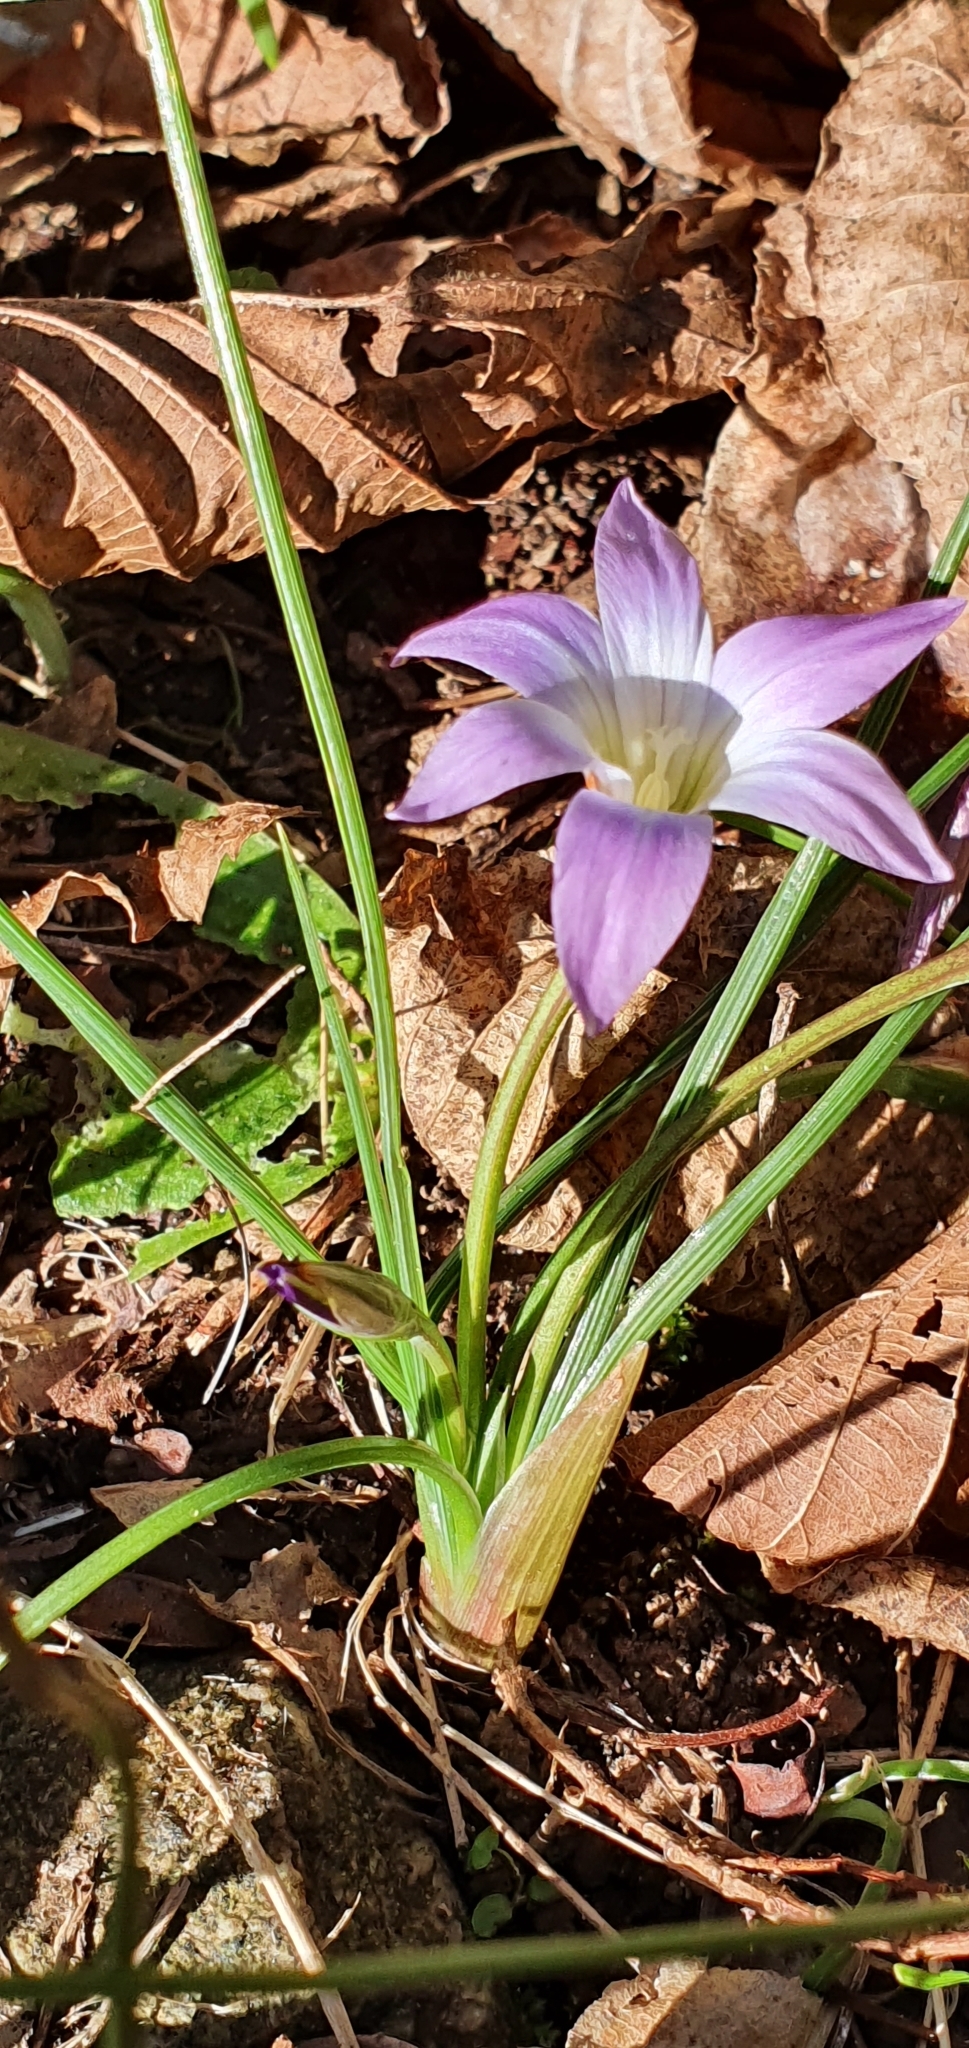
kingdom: Plantae
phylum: Tracheophyta
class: Liliopsida
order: Asparagales
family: Iridaceae
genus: Romulea
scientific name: Romulea ligustica
